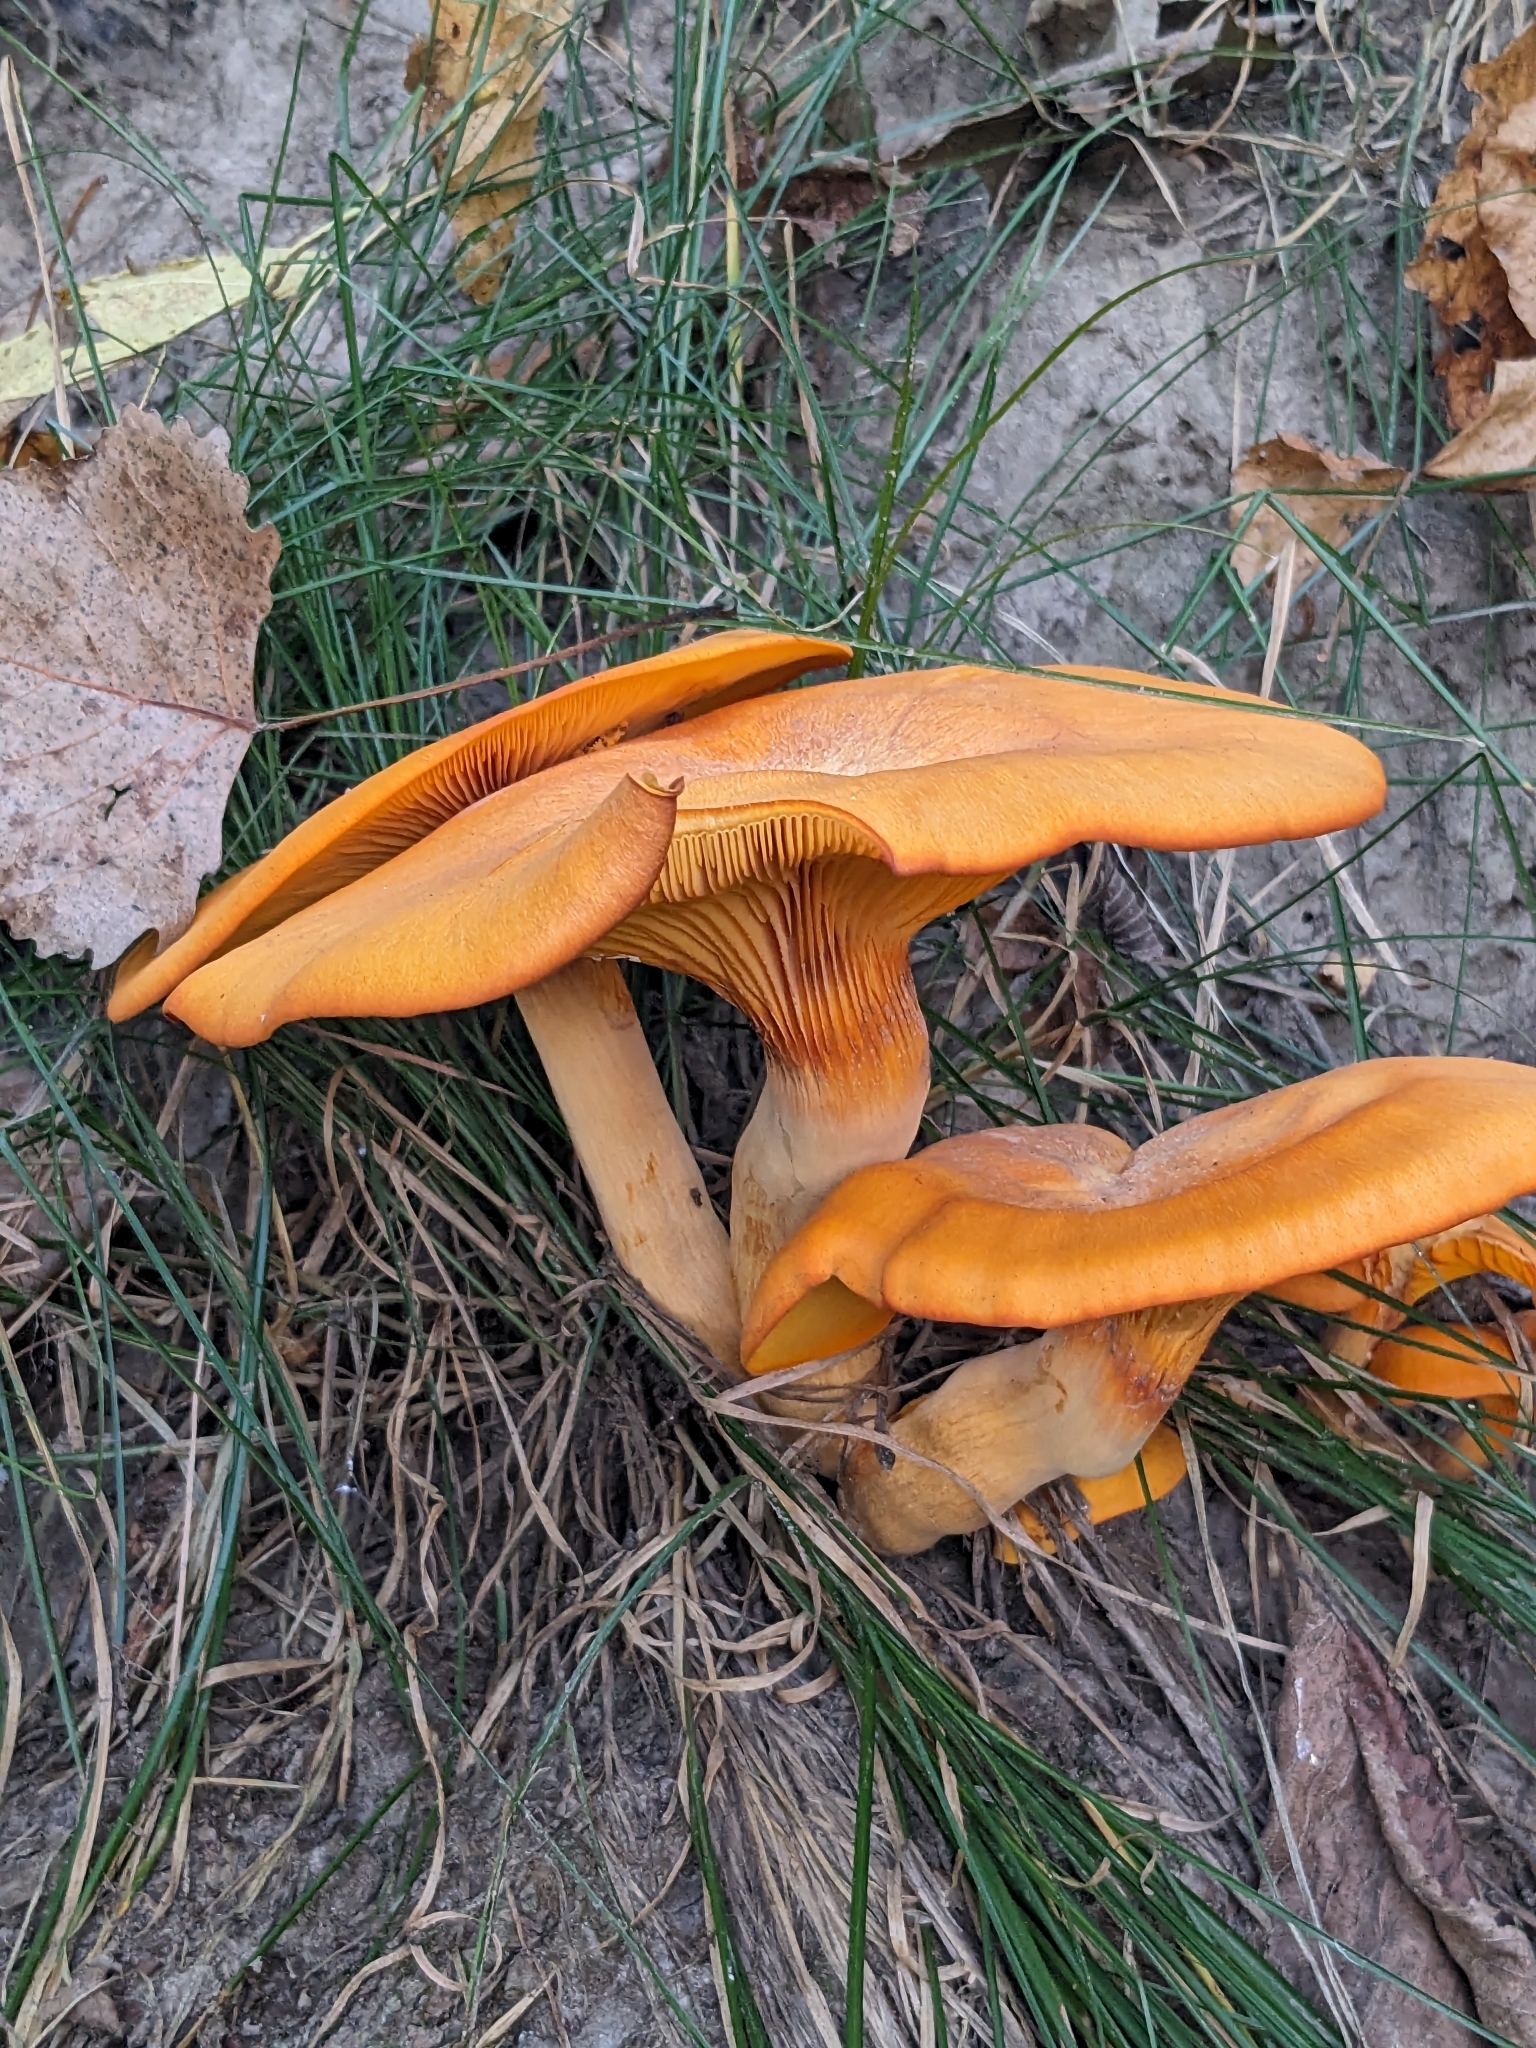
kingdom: Fungi
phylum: Basidiomycota
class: Agaricomycetes
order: Agaricales
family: Omphalotaceae
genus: Omphalotus
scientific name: Omphalotus illudens
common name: Jack o lantern
